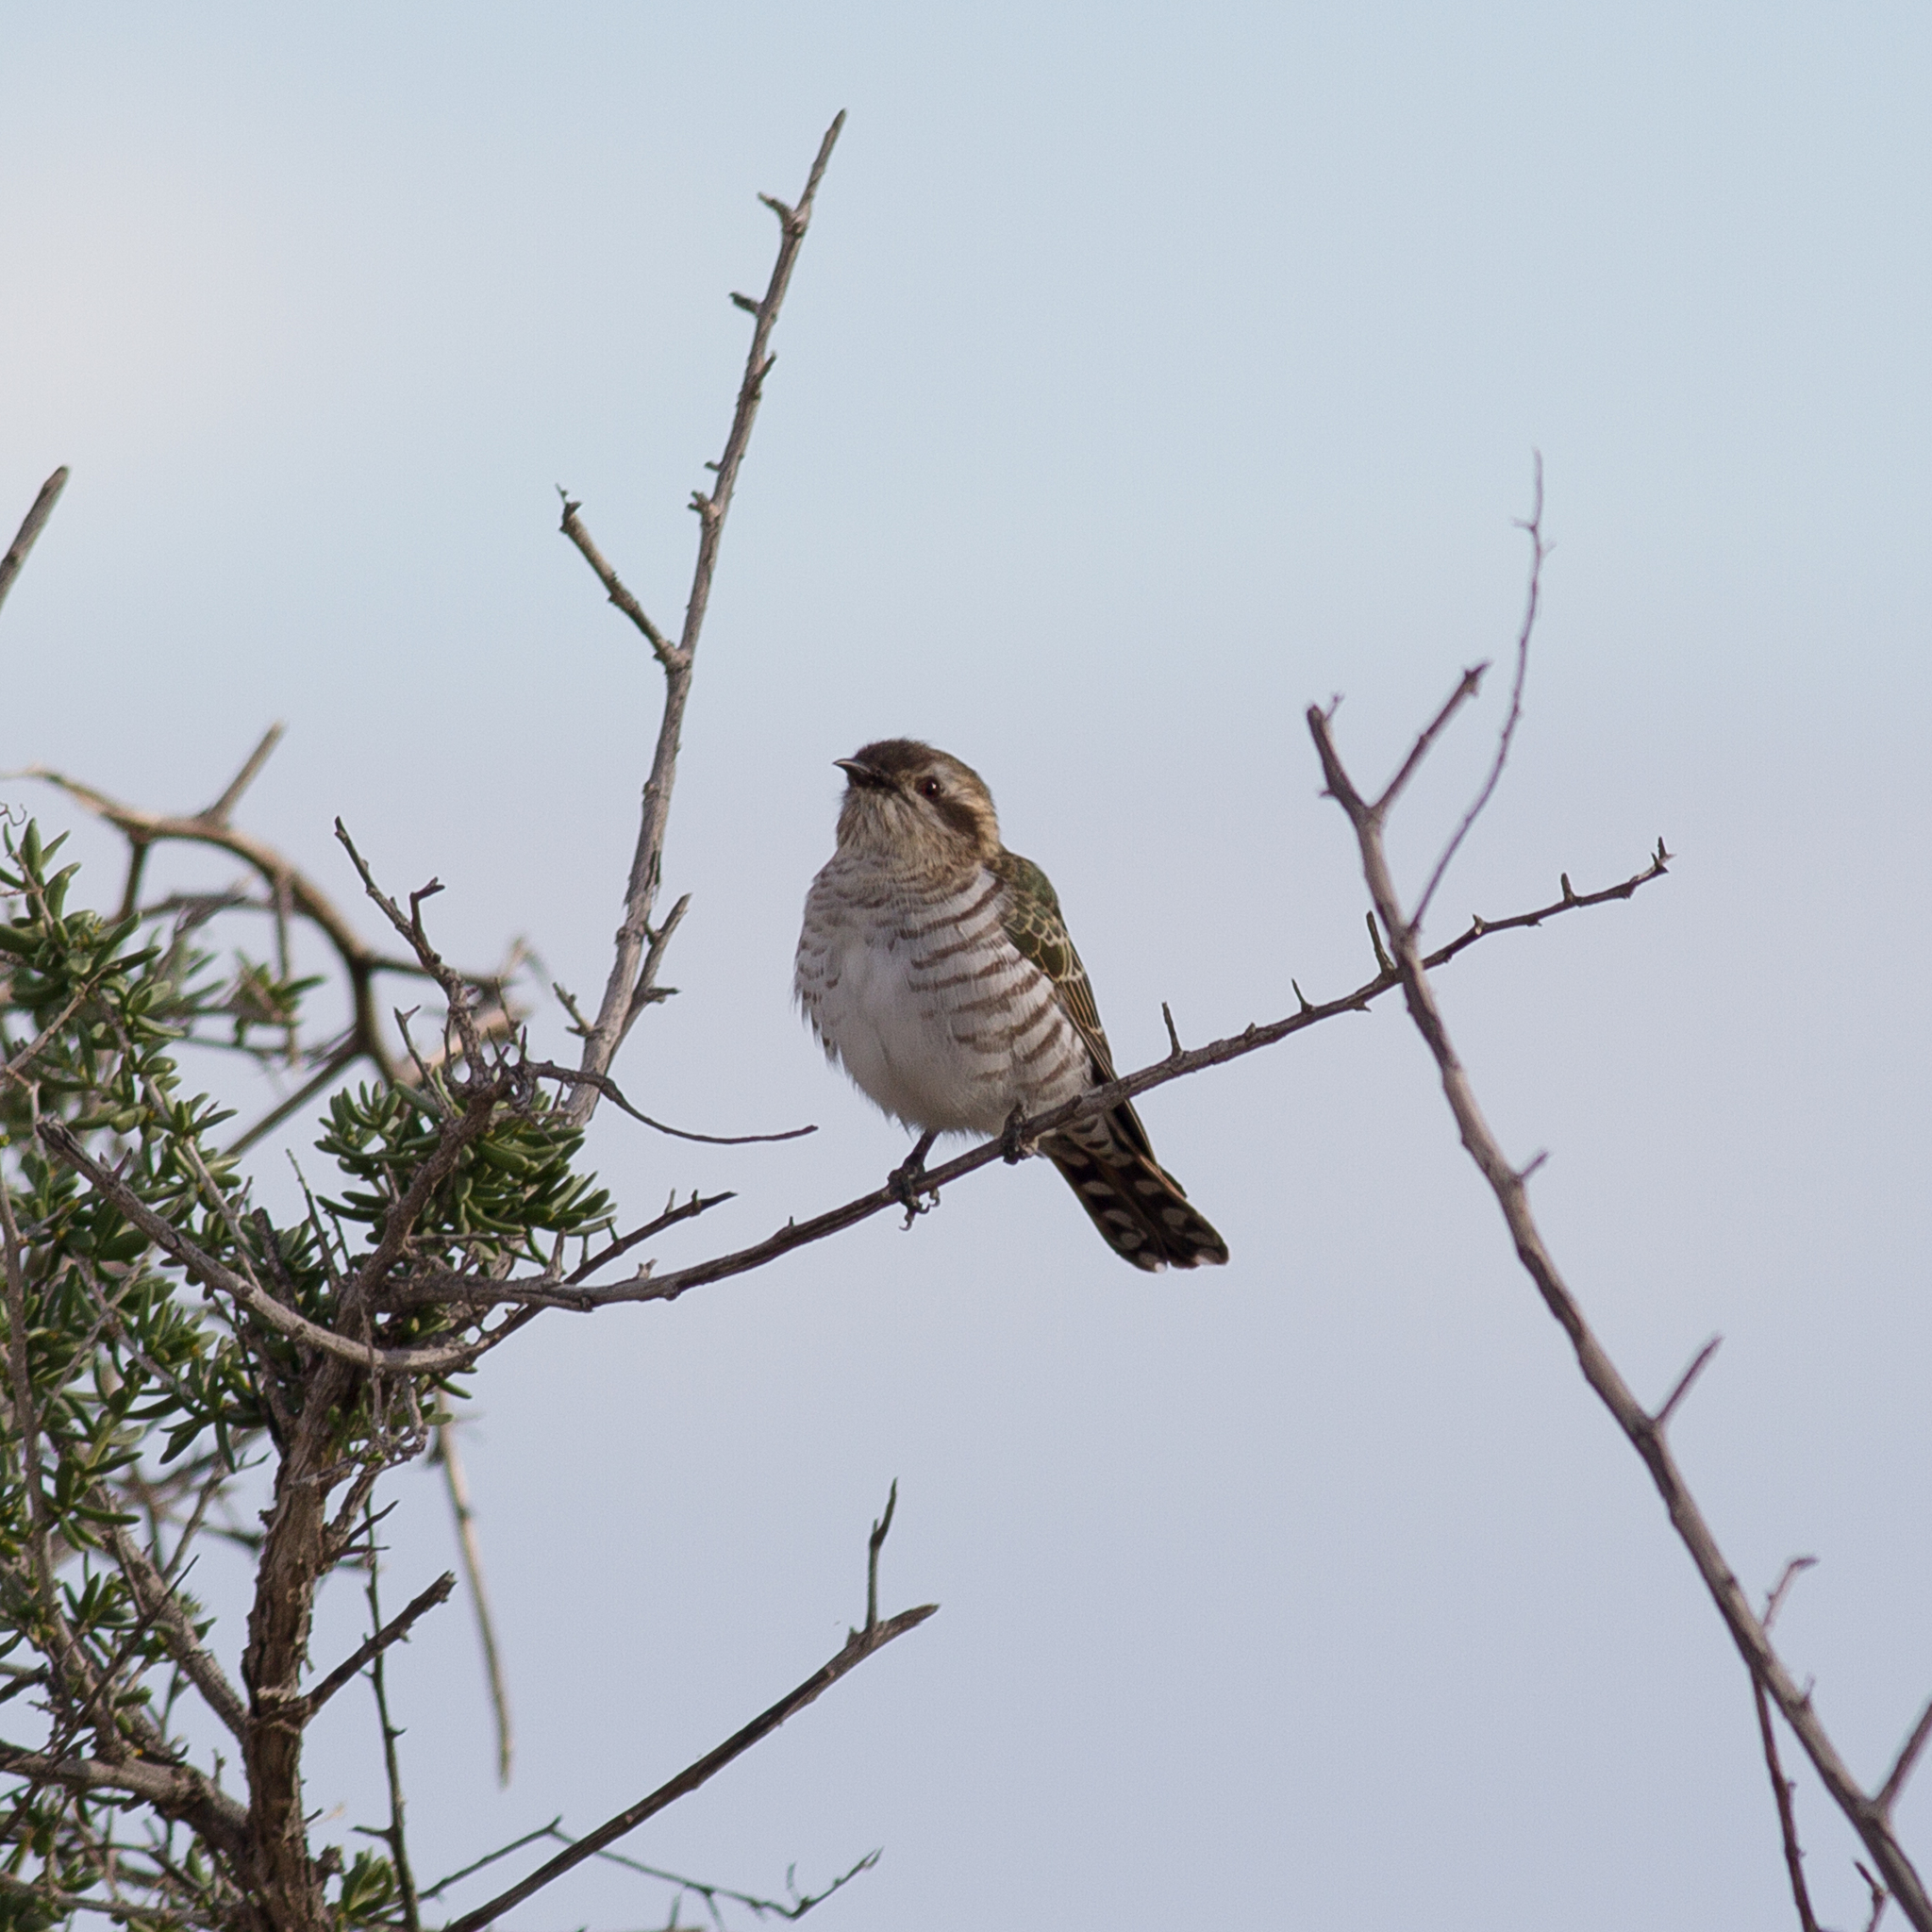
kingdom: Animalia
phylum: Chordata
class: Aves
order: Cuculiformes
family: Cuculidae
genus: Chrysococcyx
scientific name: Chrysococcyx basalis
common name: Horsfield's bronze cuckoo
